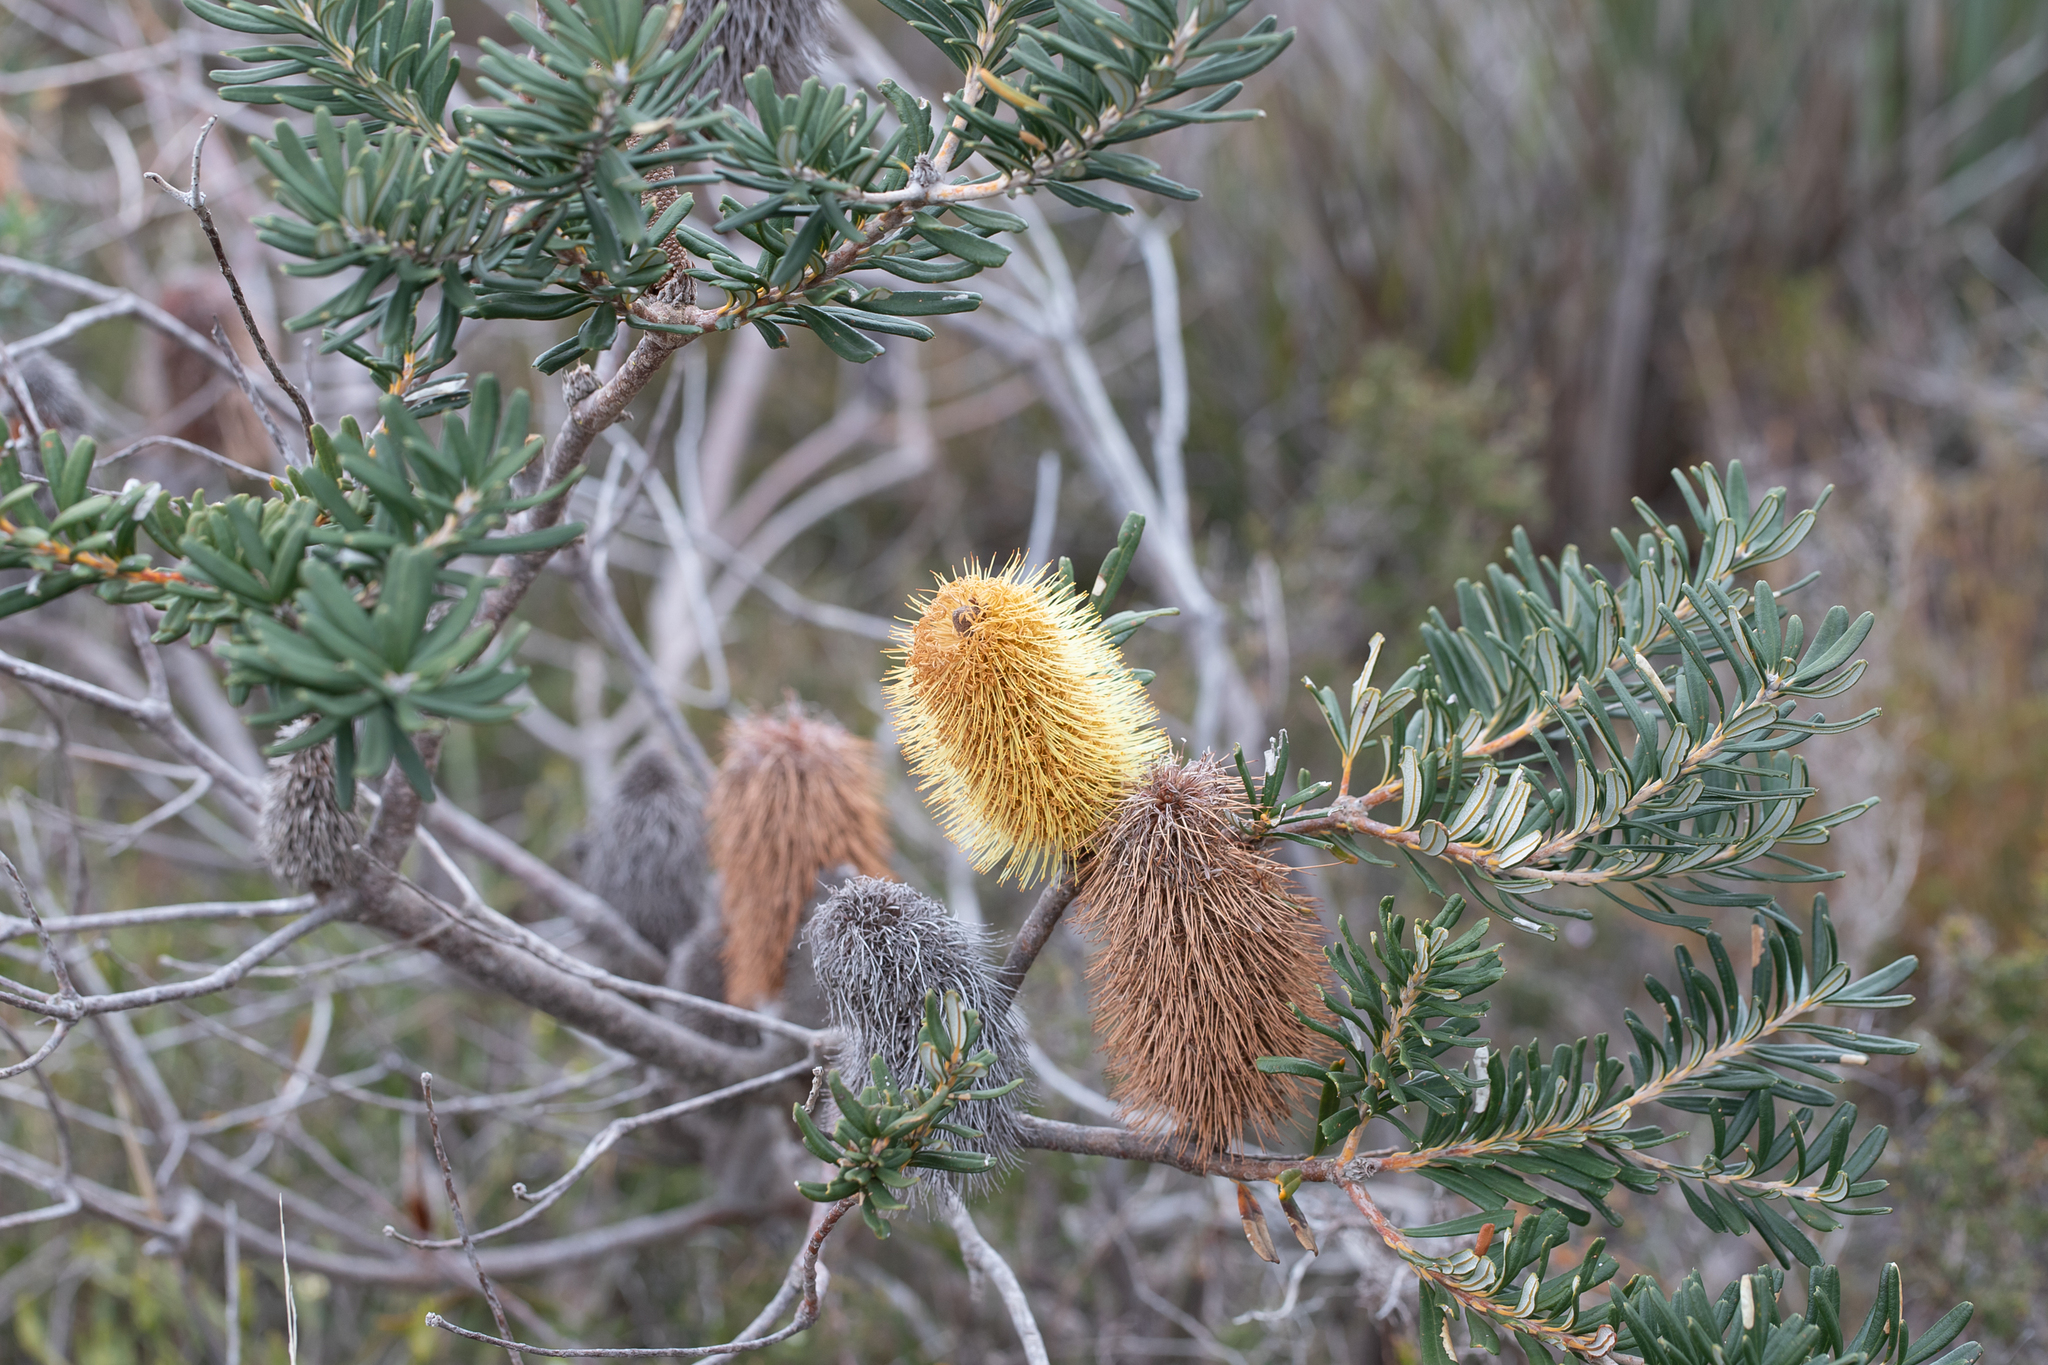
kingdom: Plantae
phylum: Tracheophyta
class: Magnoliopsida
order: Proteales
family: Proteaceae
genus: Banksia
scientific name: Banksia marginata
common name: Silver banksia
